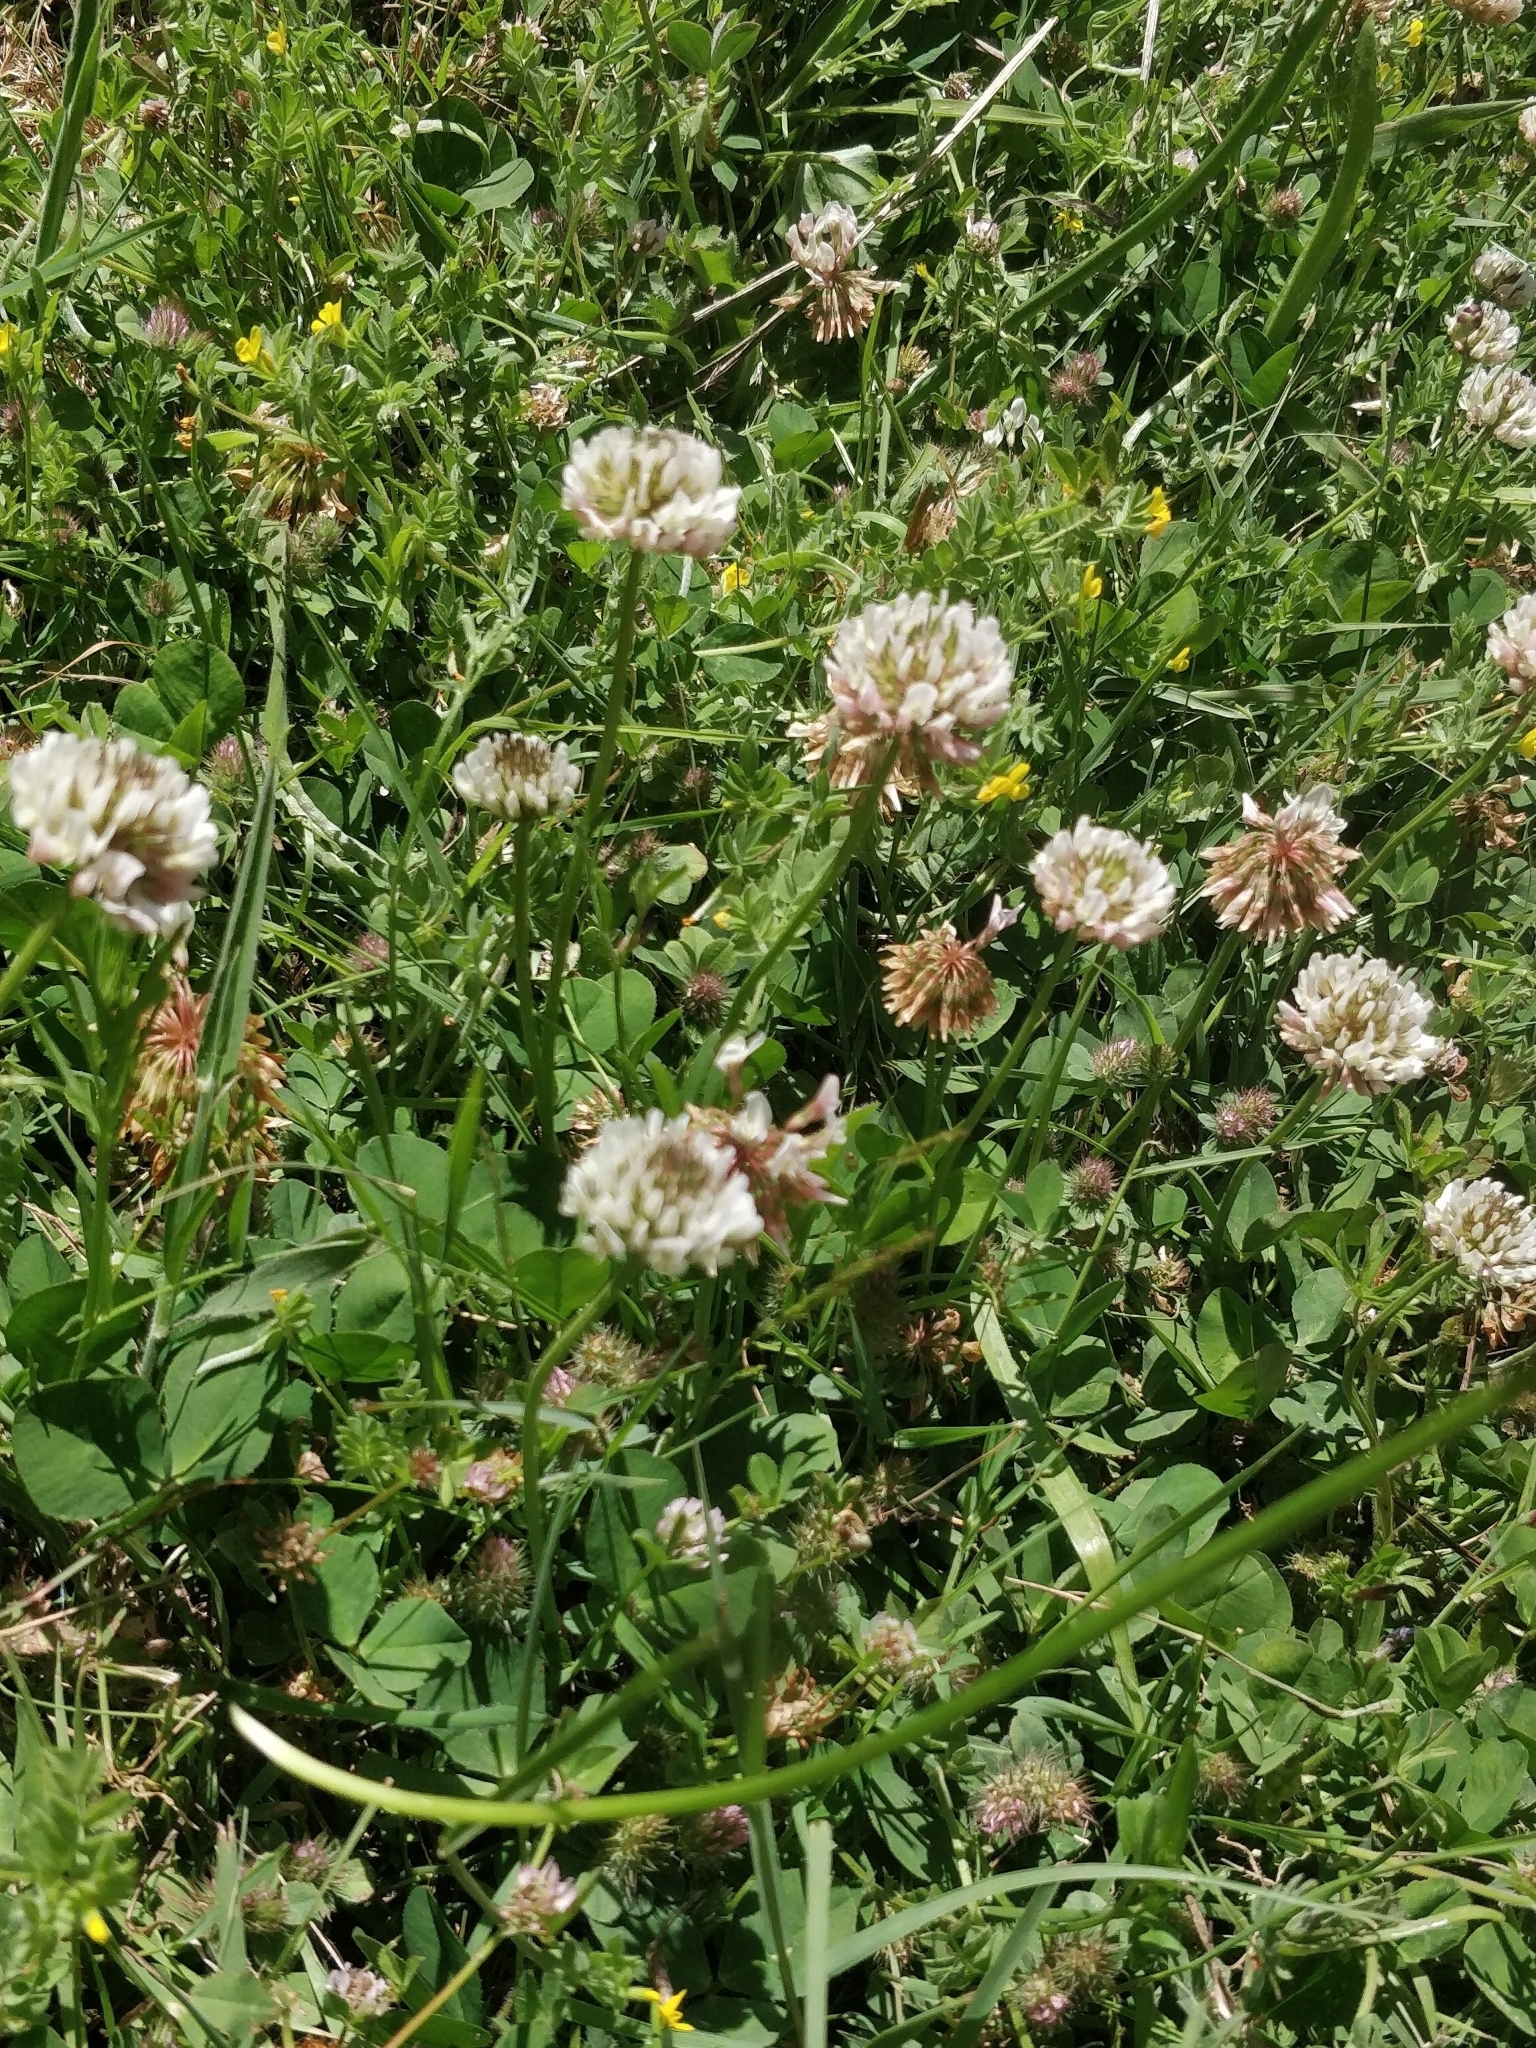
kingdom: Plantae
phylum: Tracheophyta
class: Magnoliopsida
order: Fabales
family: Fabaceae
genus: Trifolium
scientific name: Trifolium repens
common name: White clover
